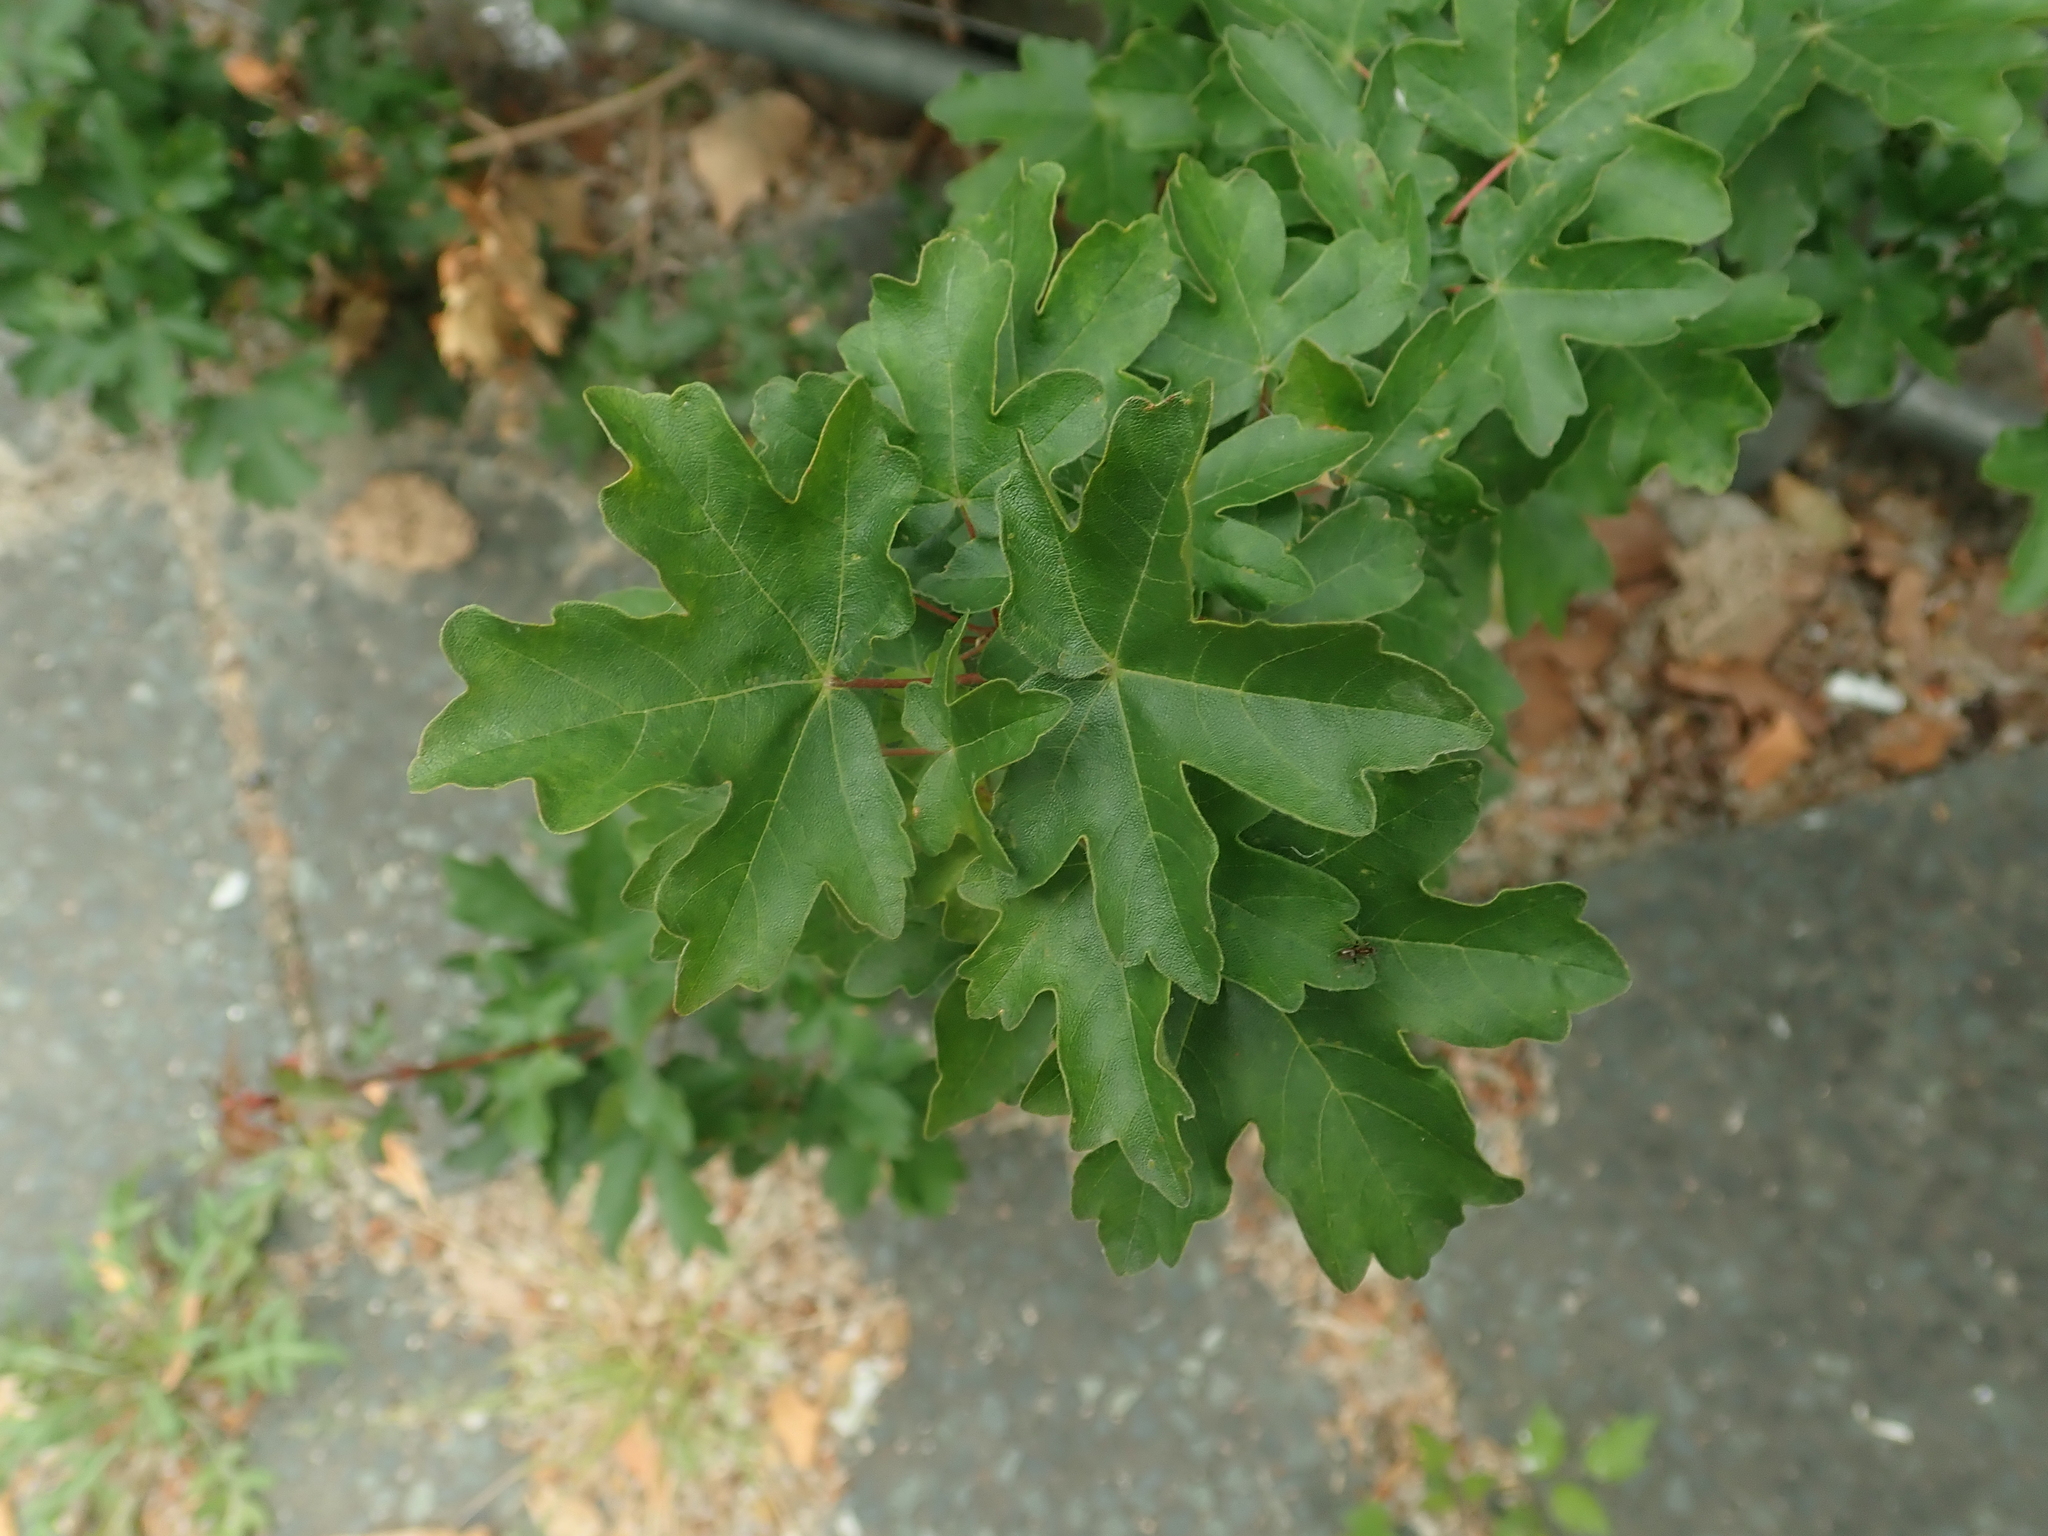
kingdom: Plantae
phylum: Tracheophyta
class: Magnoliopsida
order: Sapindales
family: Sapindaceae
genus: Acer
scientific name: Acer campestre
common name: Field maple
